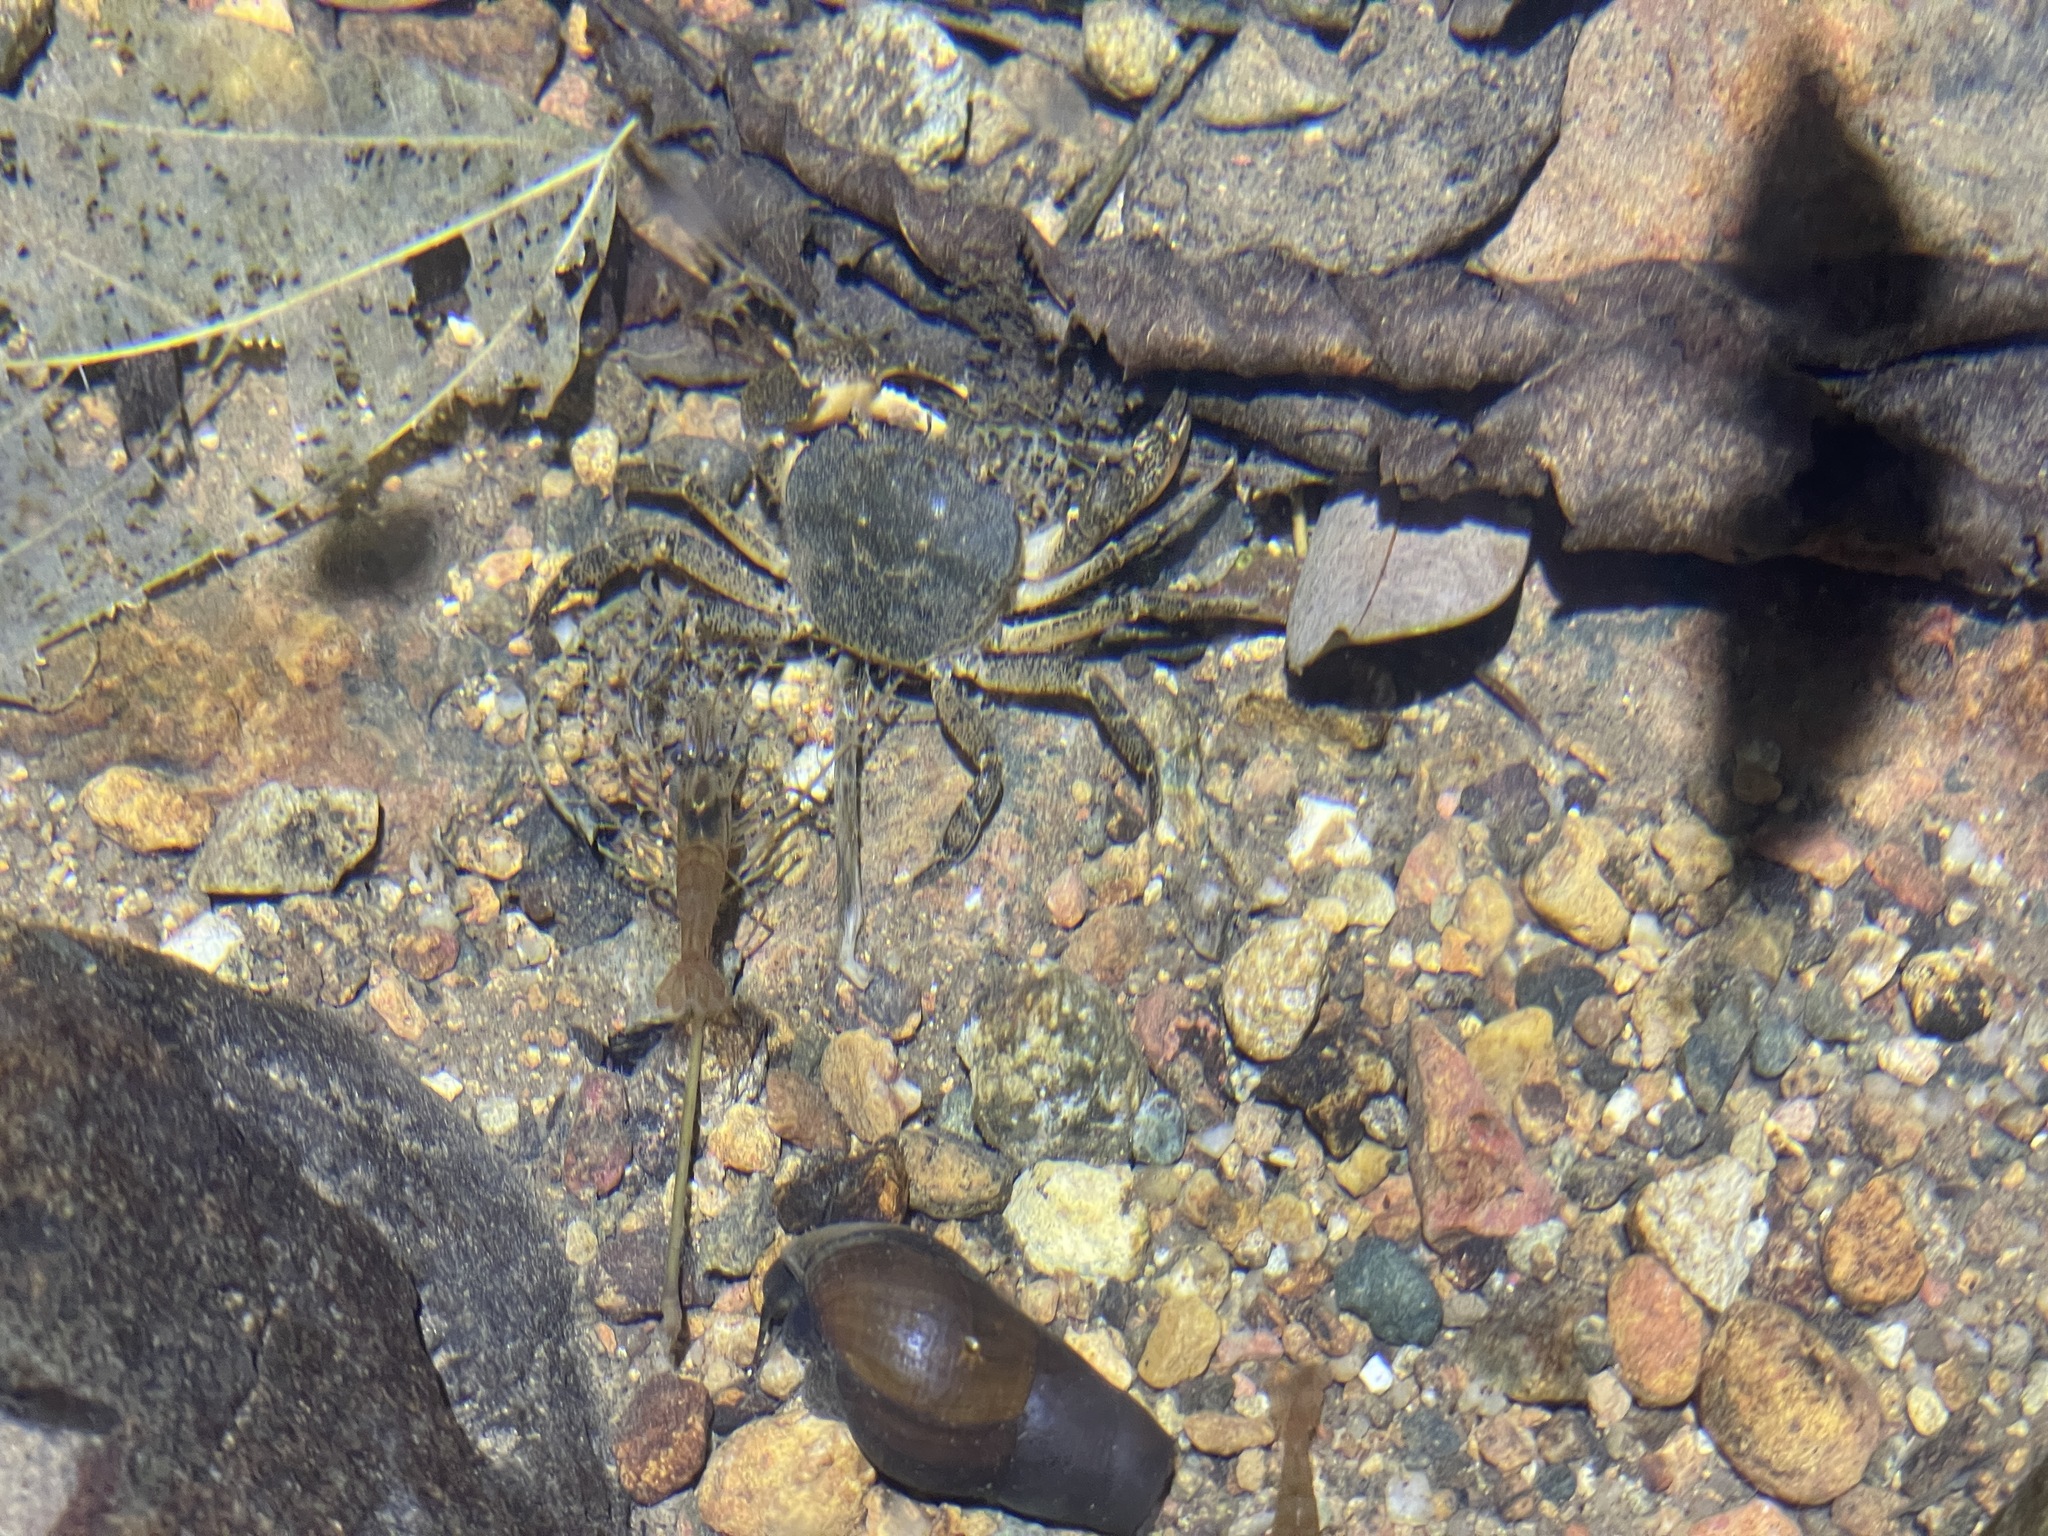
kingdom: Animalia
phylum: Arthropoda
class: Malacostraca
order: Decapoda
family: Potamidae
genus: Sinolapotamon
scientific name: Sinolapotamon anacoluthon
